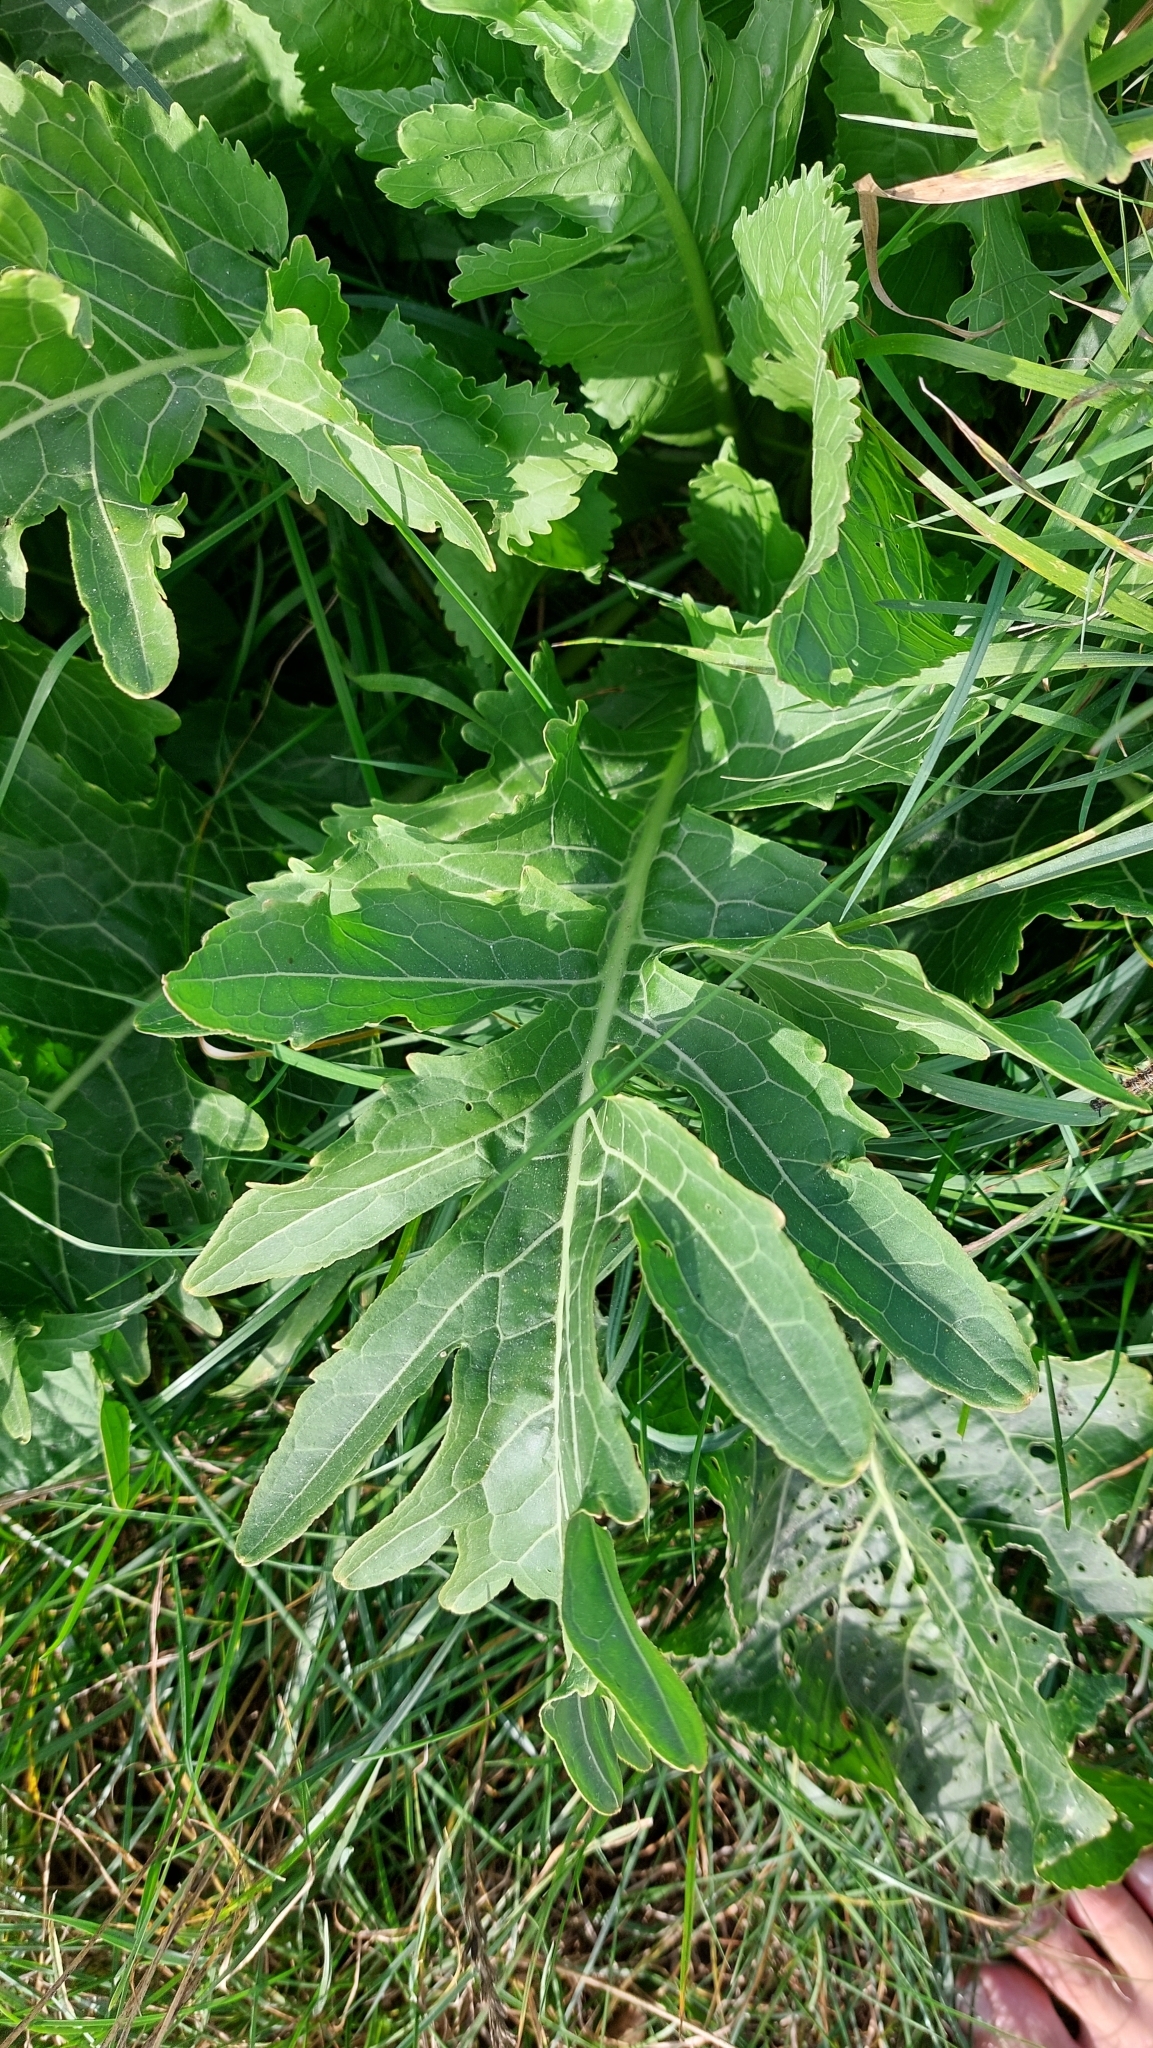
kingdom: Plantae
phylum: Tracheophyta
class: Magnoliopsida
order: Brassicales
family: Brassicaceae
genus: Armoracia
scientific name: Armoracia rusticana
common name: Horseradish
